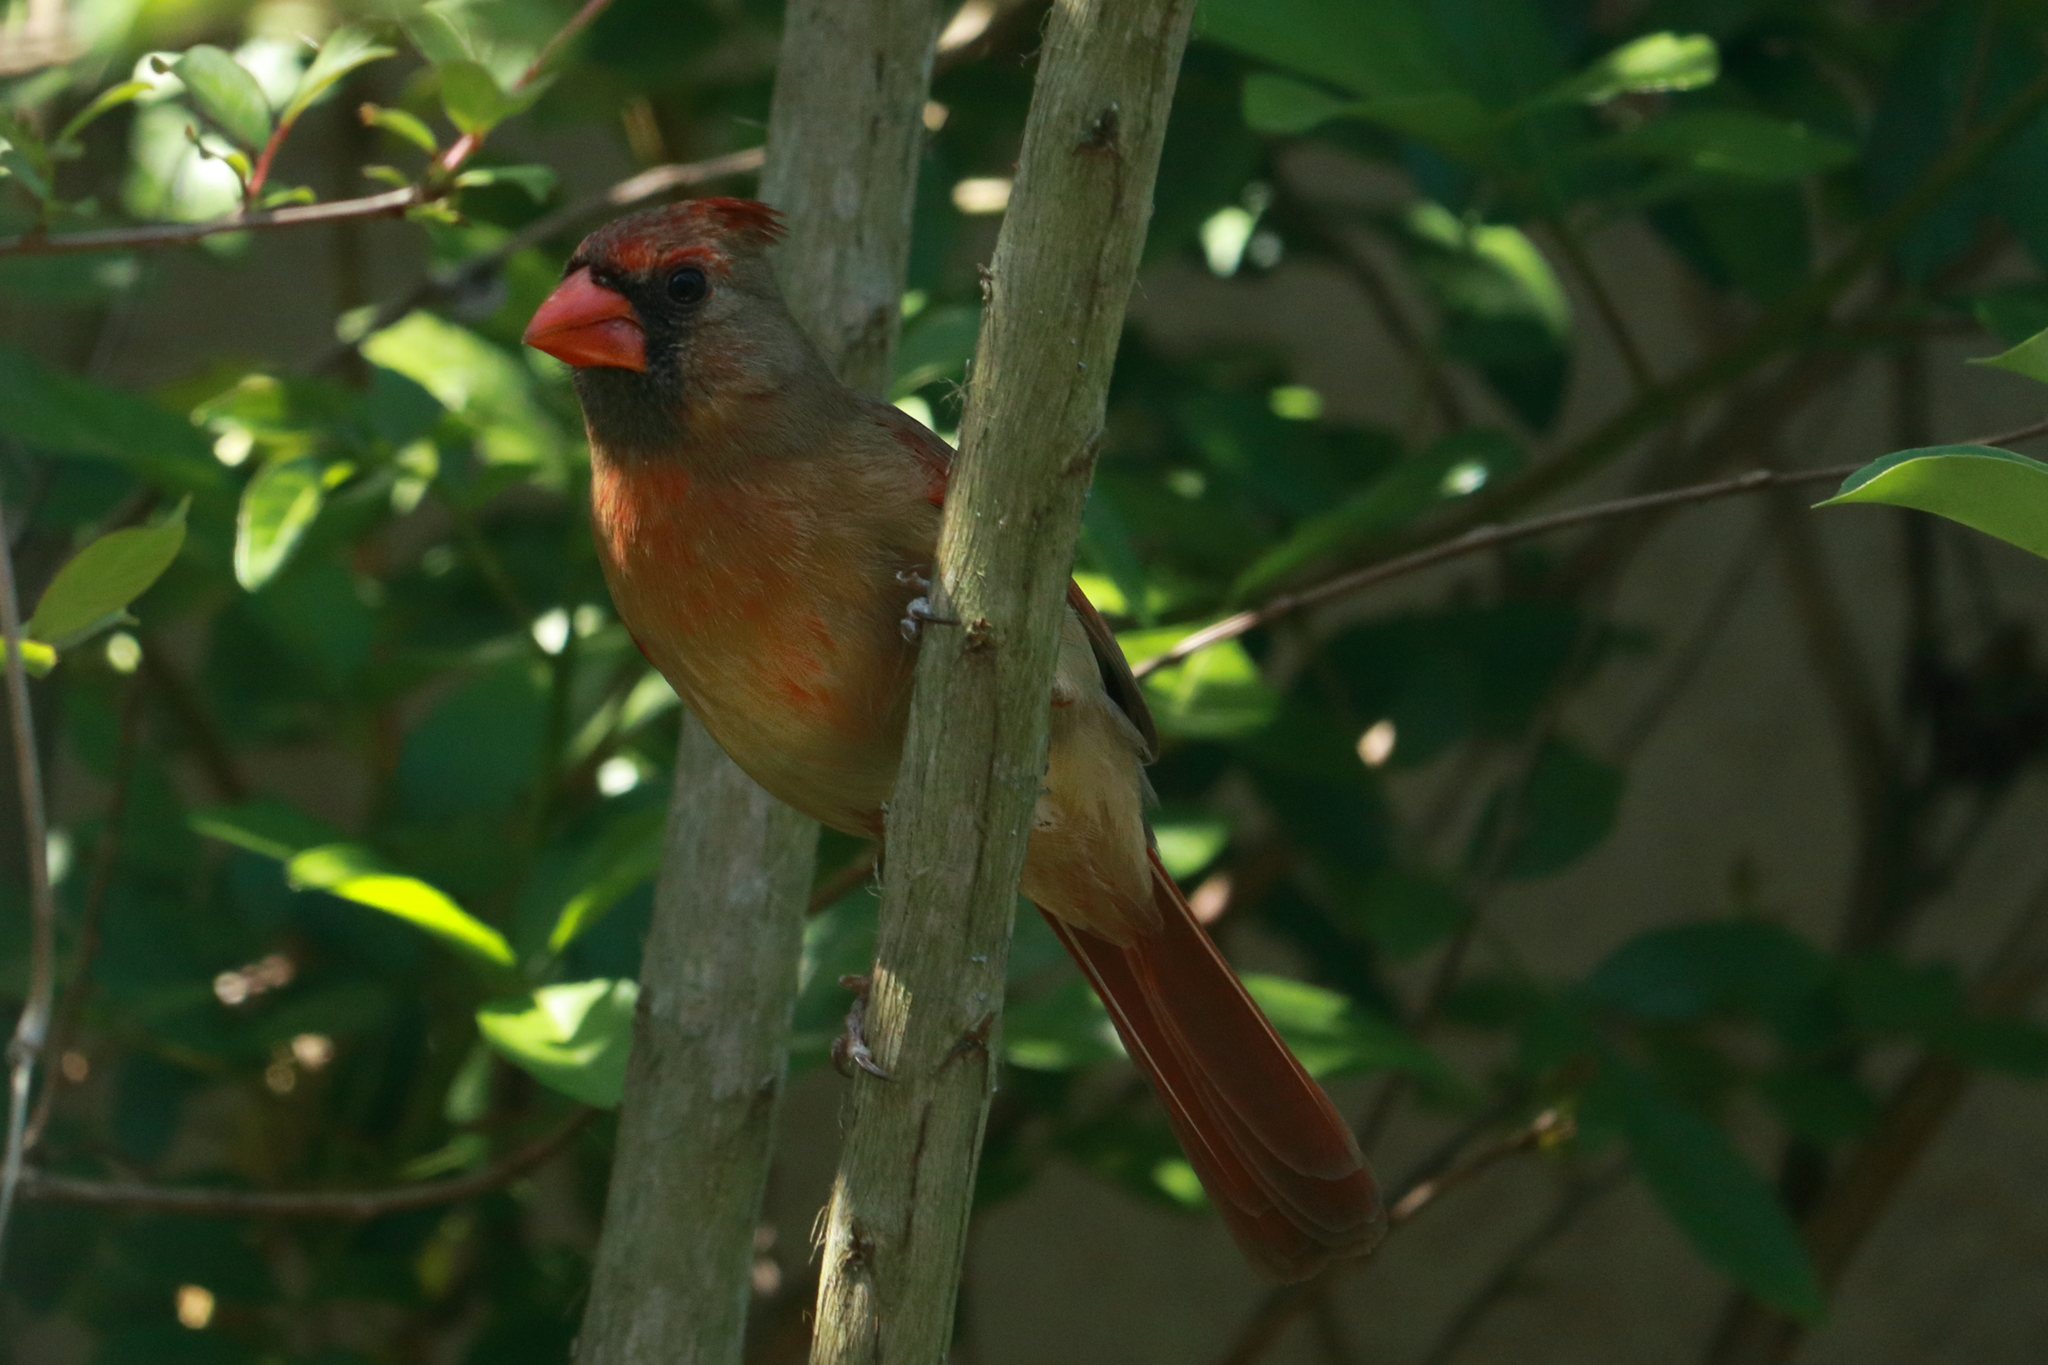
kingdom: Animalia
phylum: Chordata
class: Aves
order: Passeriformes
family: Cardinalidae
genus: Cardinalis
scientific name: Cardinalis cardinalis
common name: Northern cardinal
